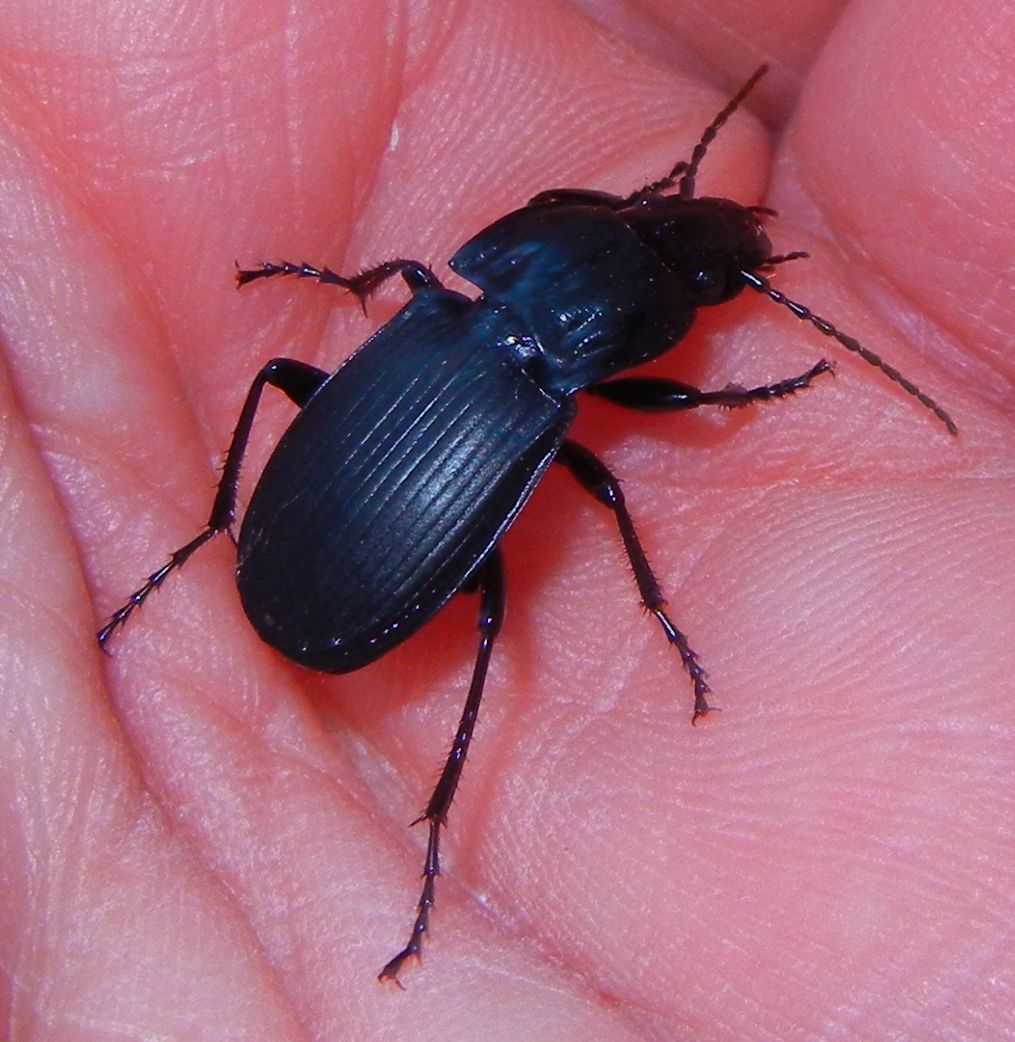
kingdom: Animalia
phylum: Arthropoda
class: Insecta
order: Coleoptera
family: Carabidae
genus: Abax
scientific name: Abax parallelepipedus
